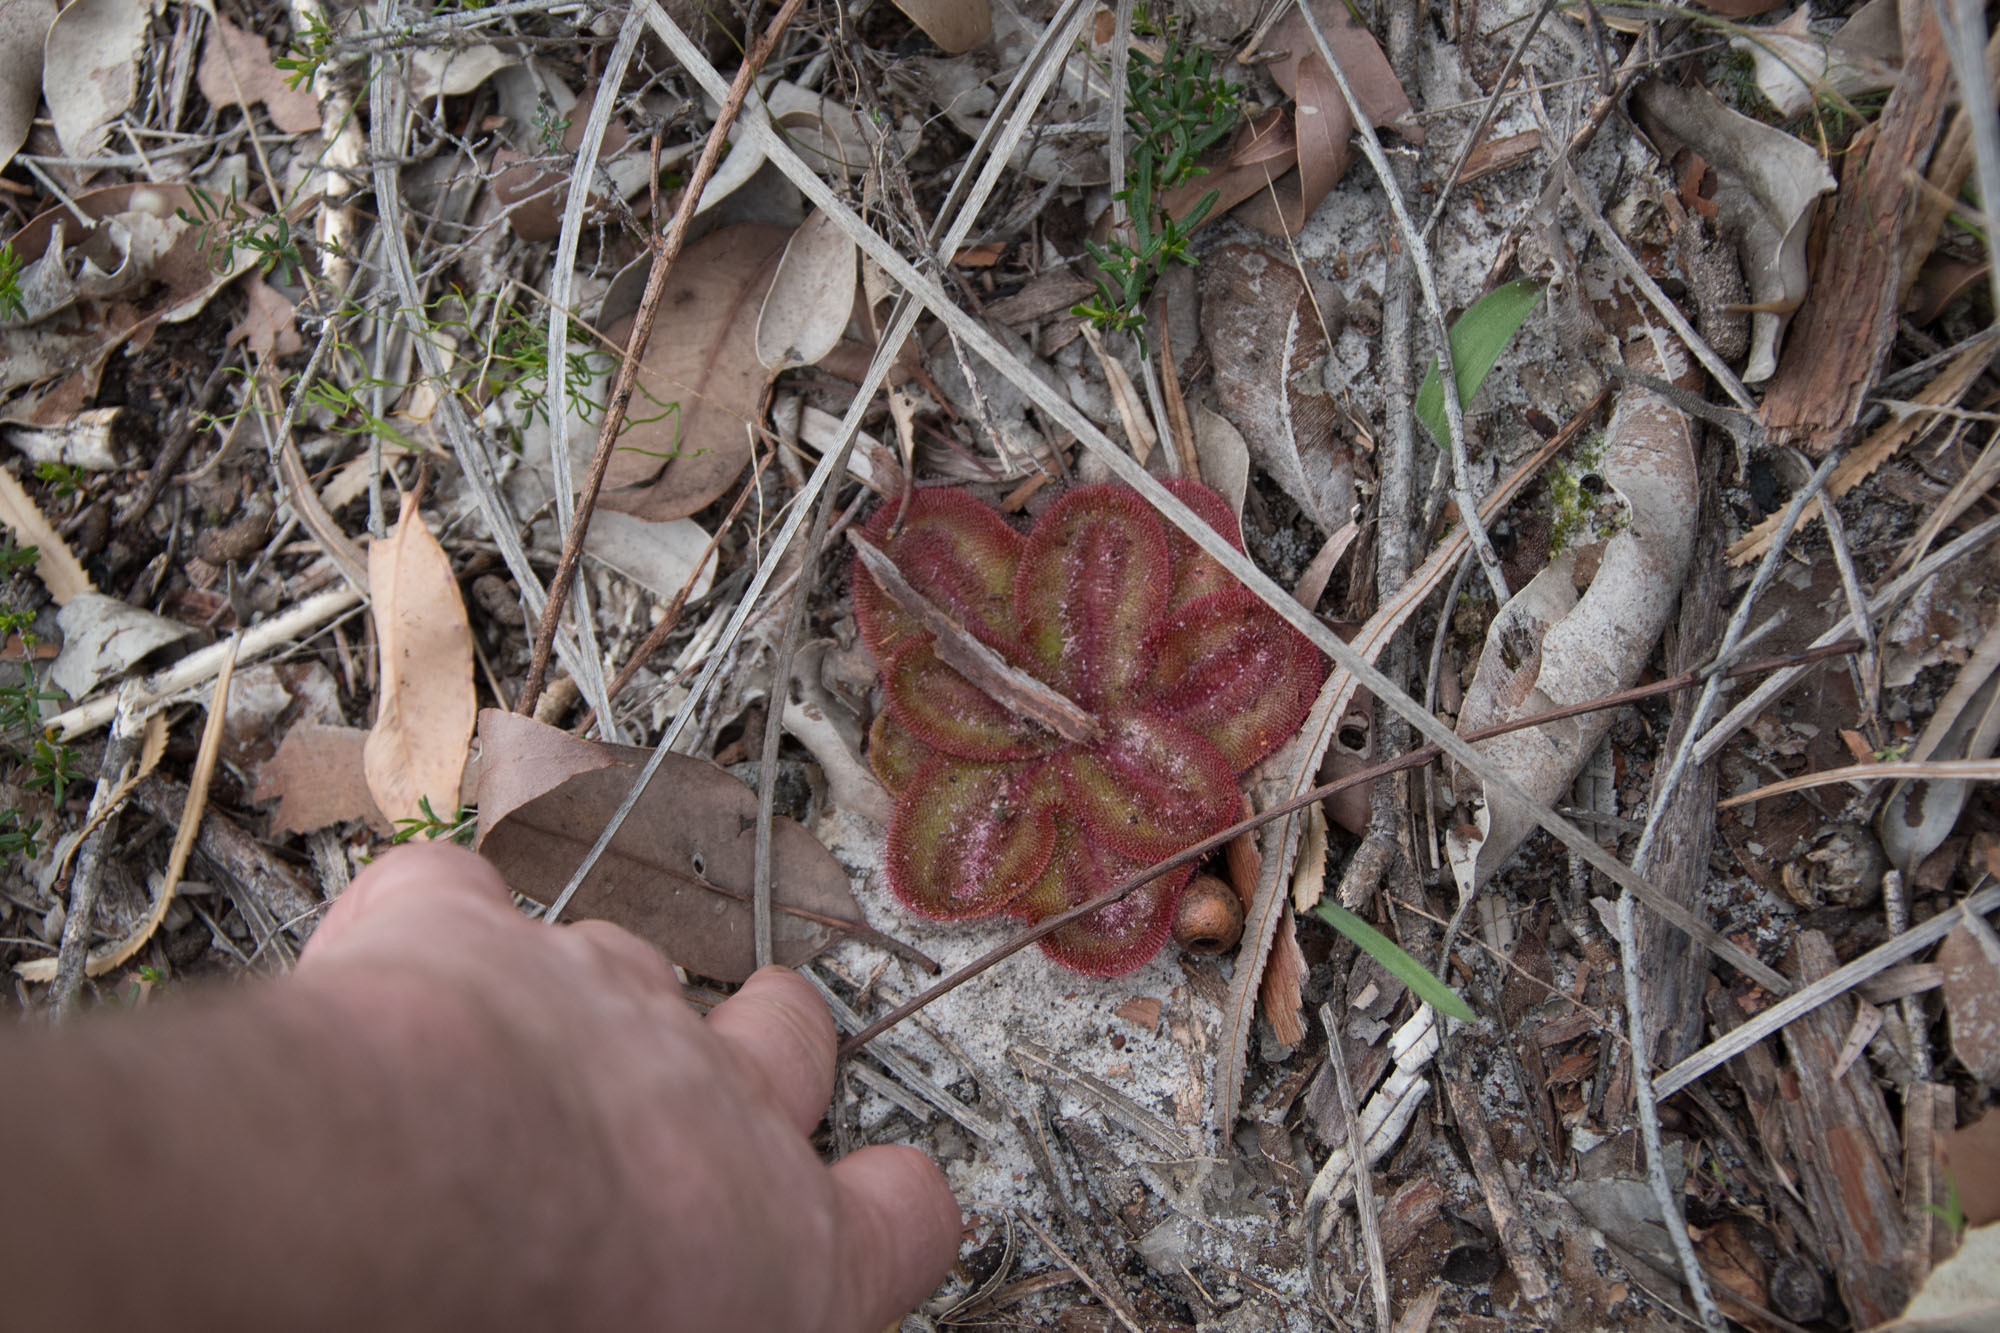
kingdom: Plantae
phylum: Tracheophyta
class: Magnoliopsida
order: Caryophyllales
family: Droseraceae
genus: Drosera
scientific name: Drosera erythrorhiza
